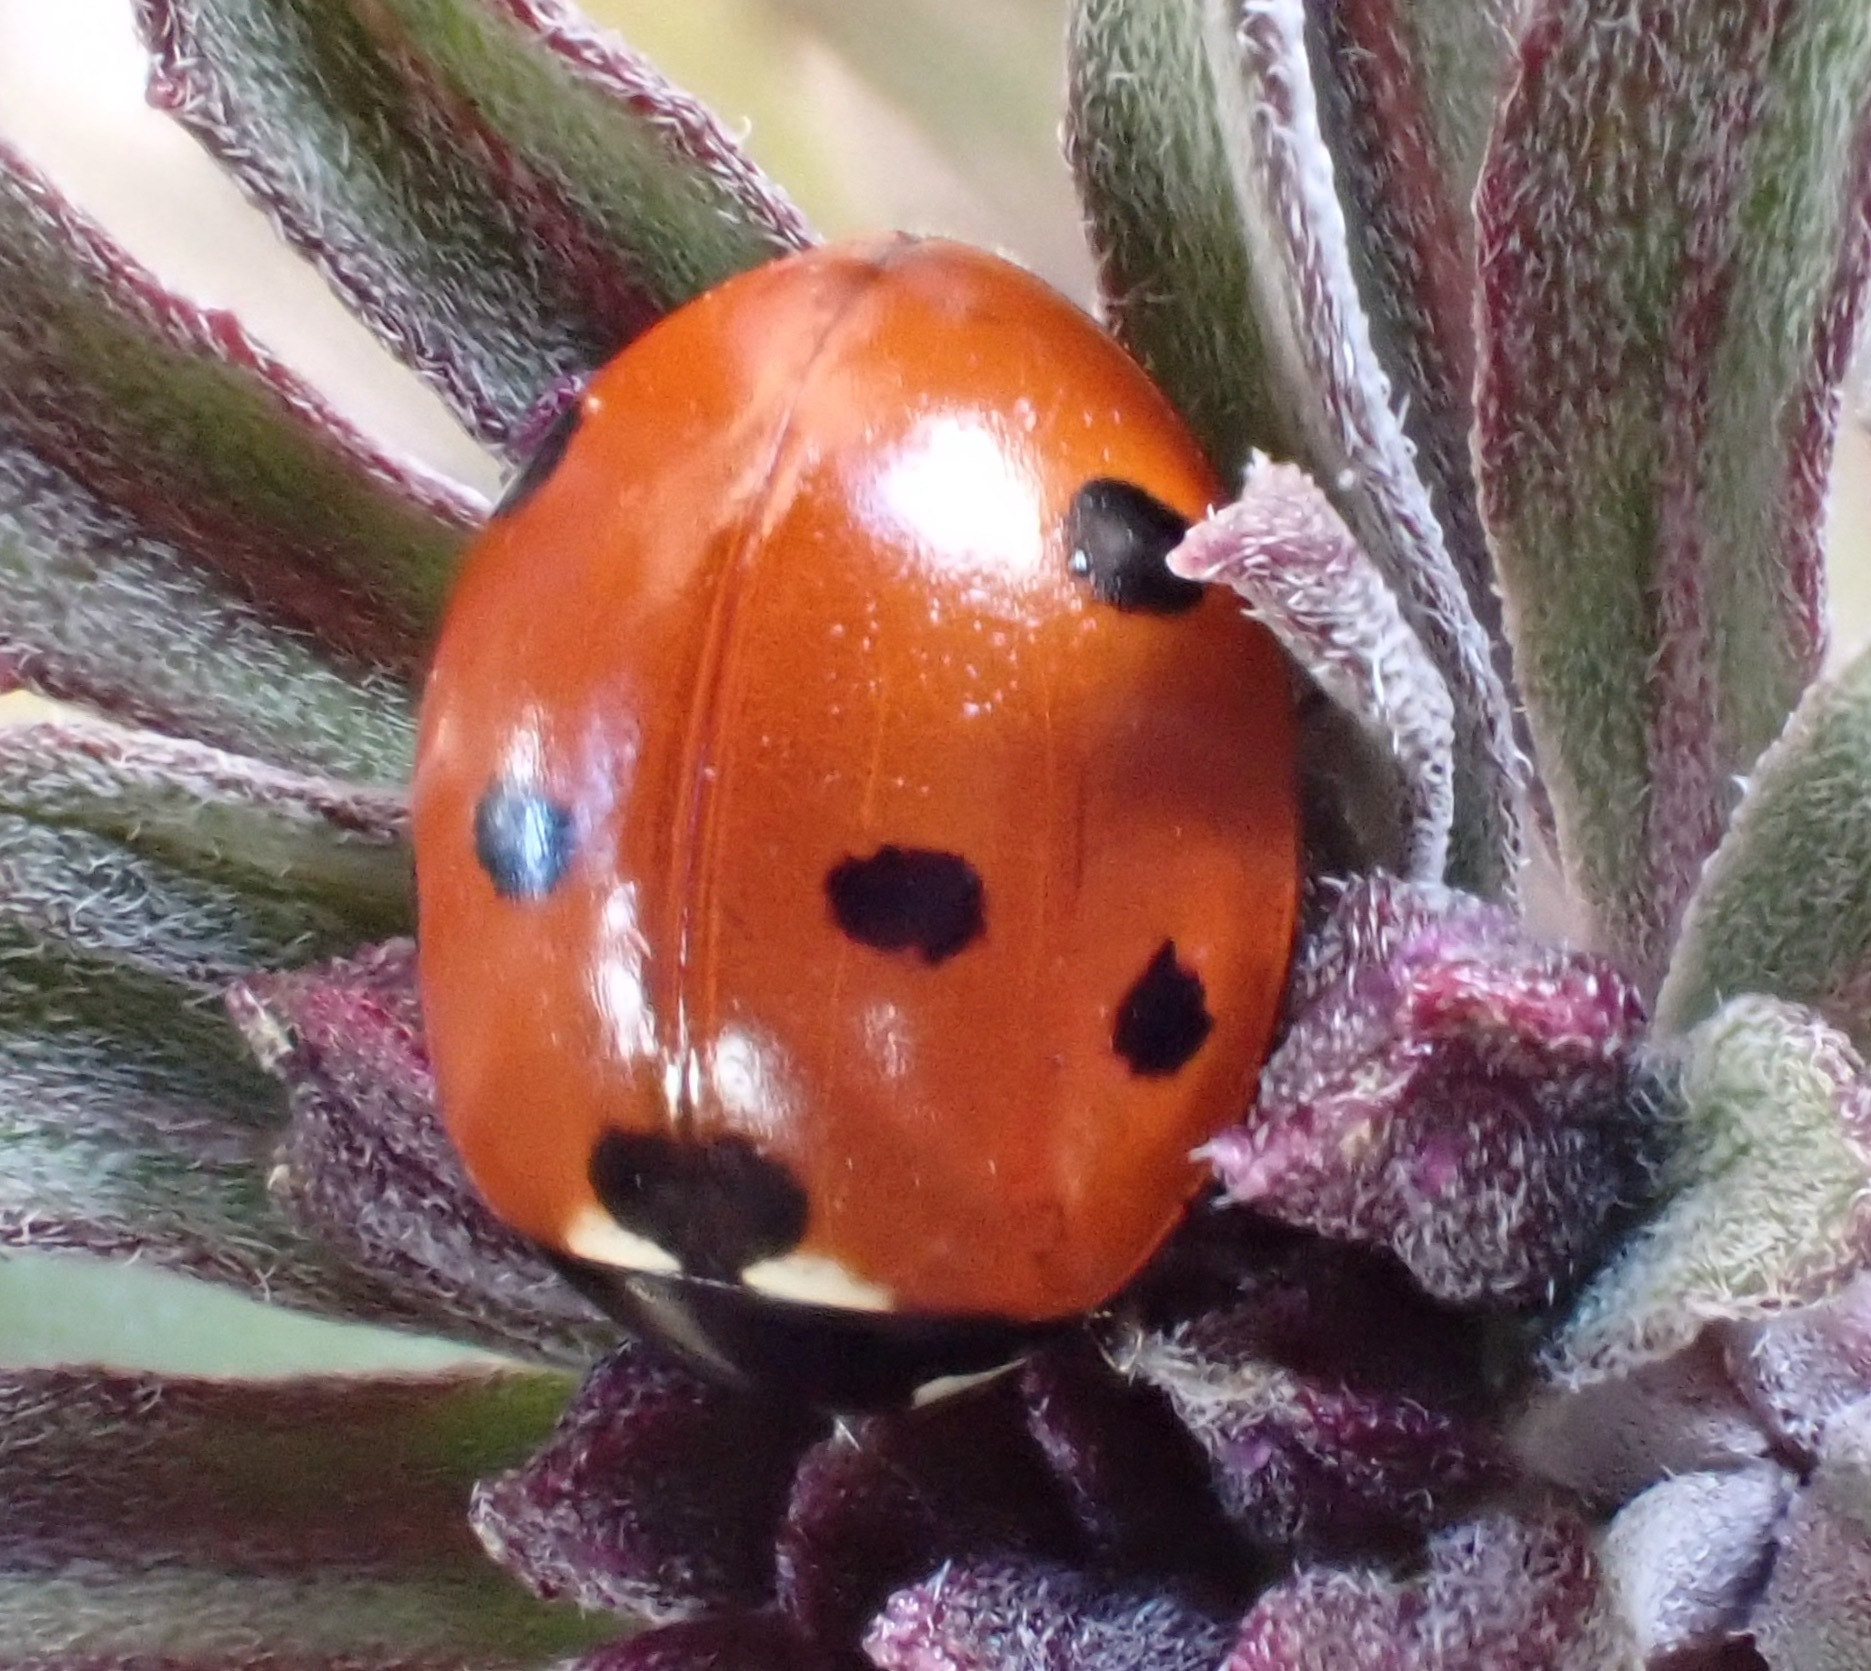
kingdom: Animalia
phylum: Arthropoda
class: Insecta
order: Coleoptera
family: Coccinellidae
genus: Coccinella
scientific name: Coccinella septempunctata
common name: Sevenspotted lady beetle
